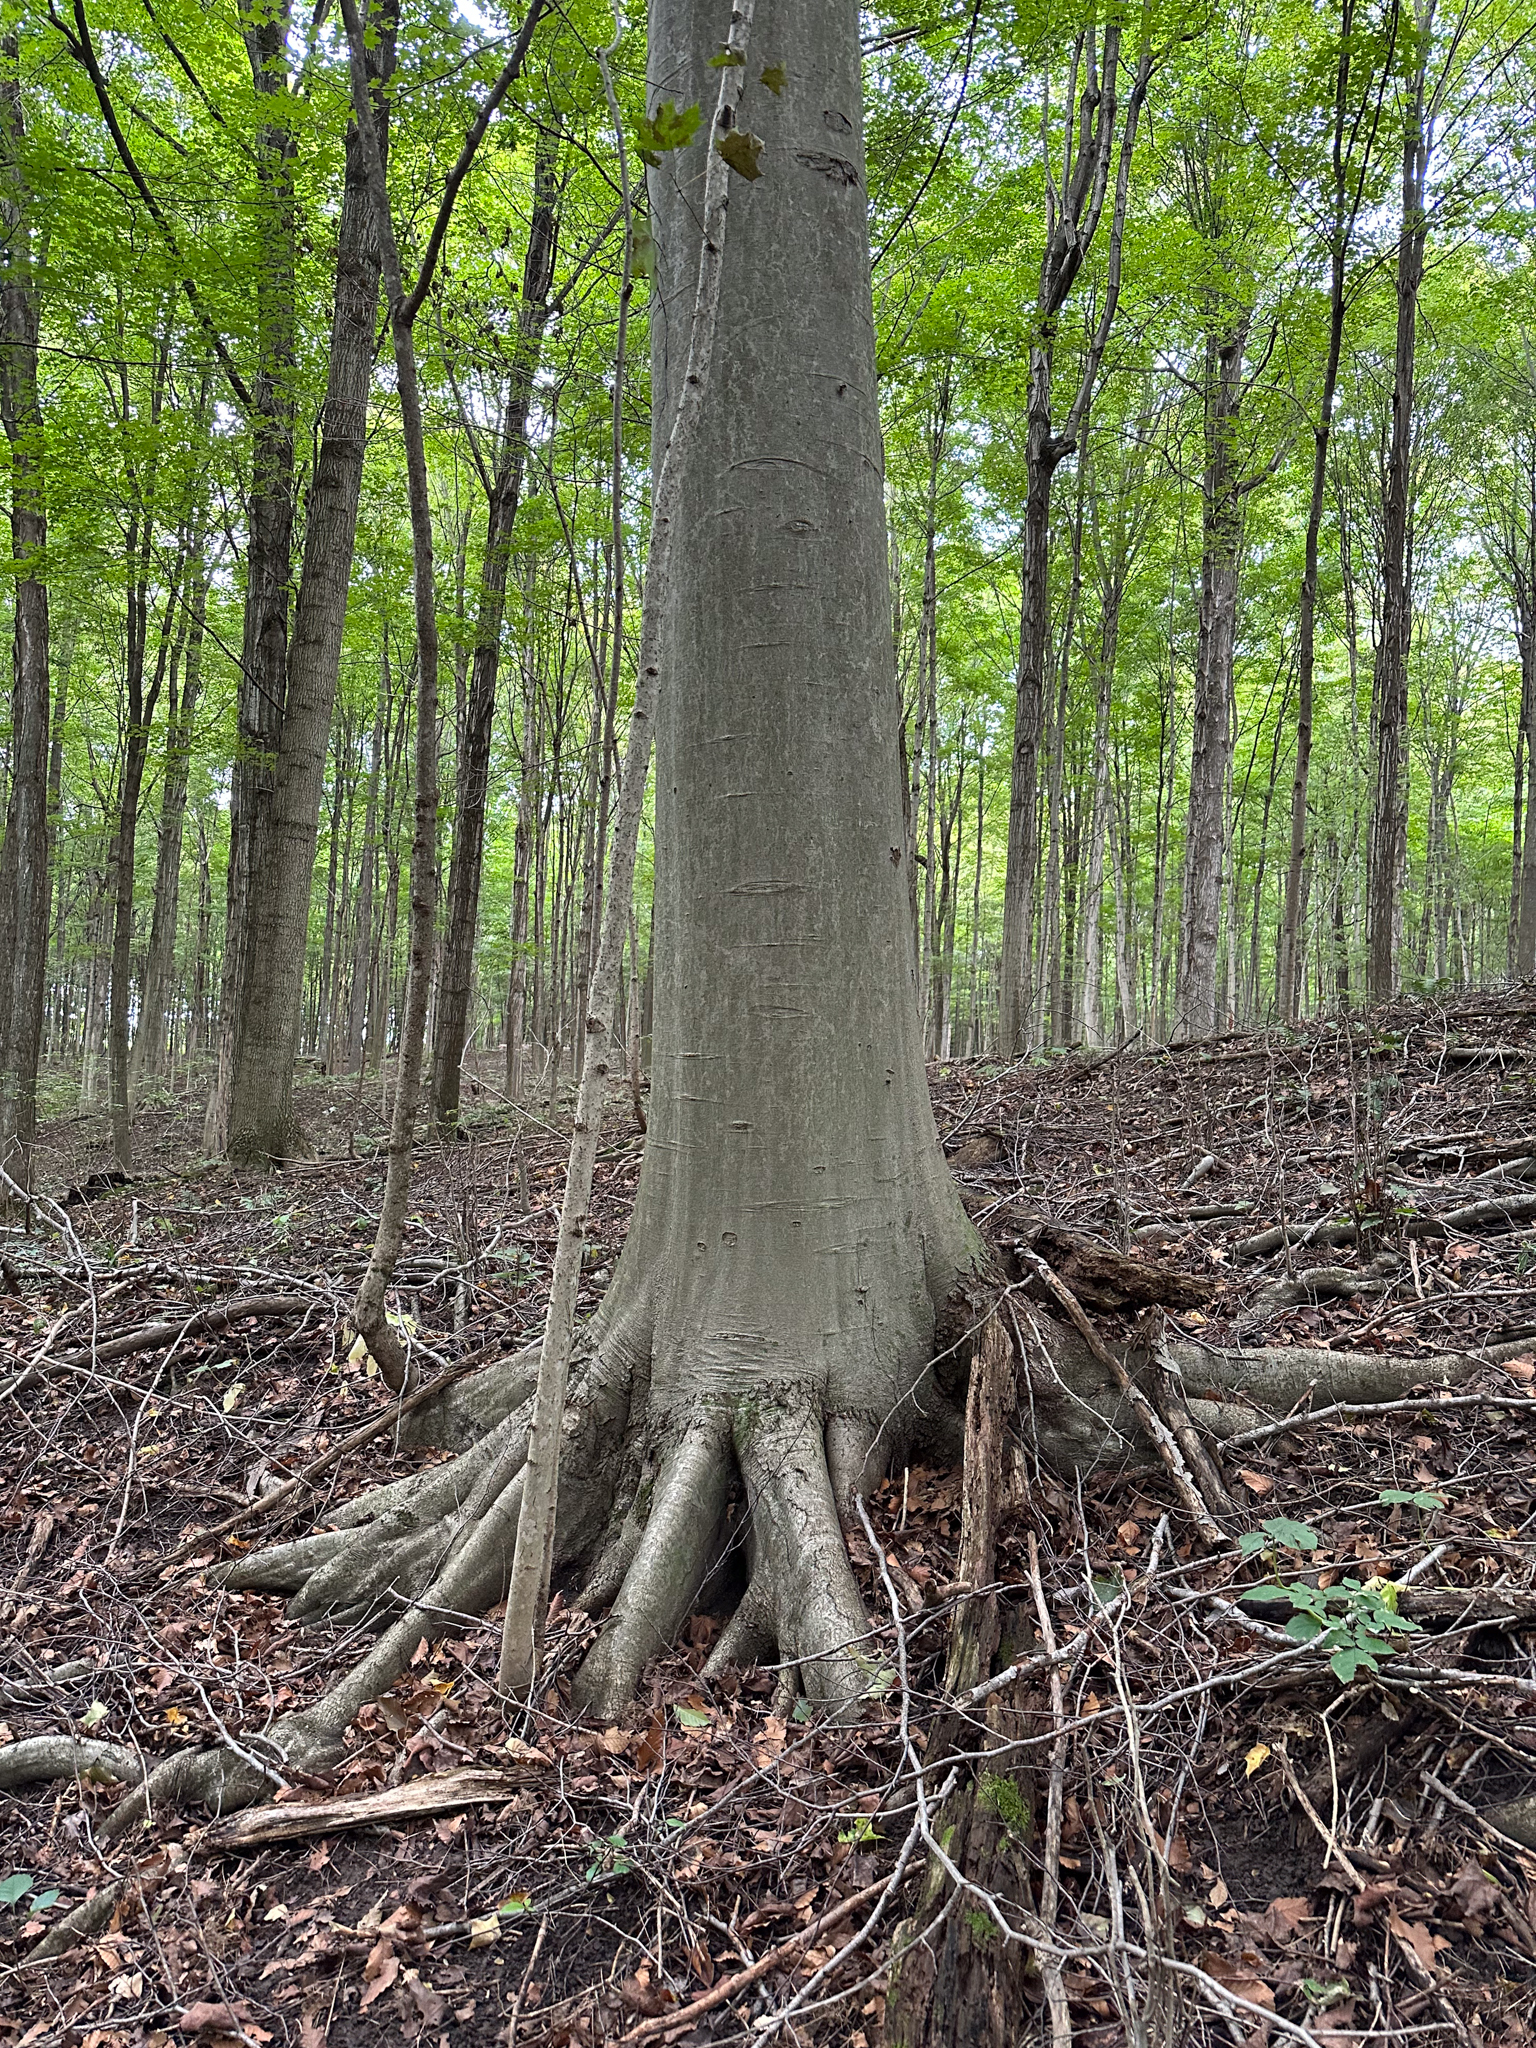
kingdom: Plantae
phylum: Tracheophyta
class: Magnoliopsida
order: Fagales
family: Fagaceae
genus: Fagus
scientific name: Fagus grandifolia
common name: American beech
